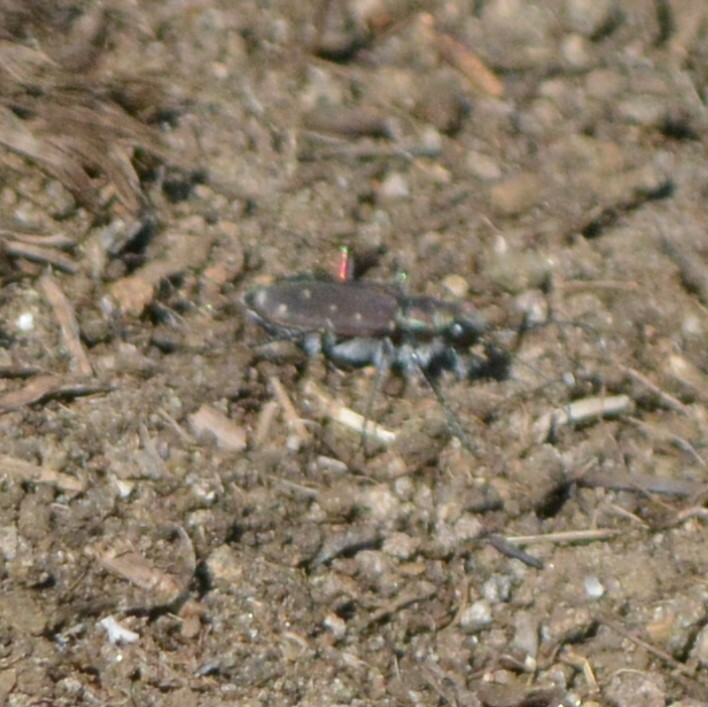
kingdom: Animalia
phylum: Arthropoda
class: Insecta
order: Coleoptera
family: Carabidae
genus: Cicindela
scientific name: Cicindela duodecimguttata
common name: Twelve-spotted tiger beetle
